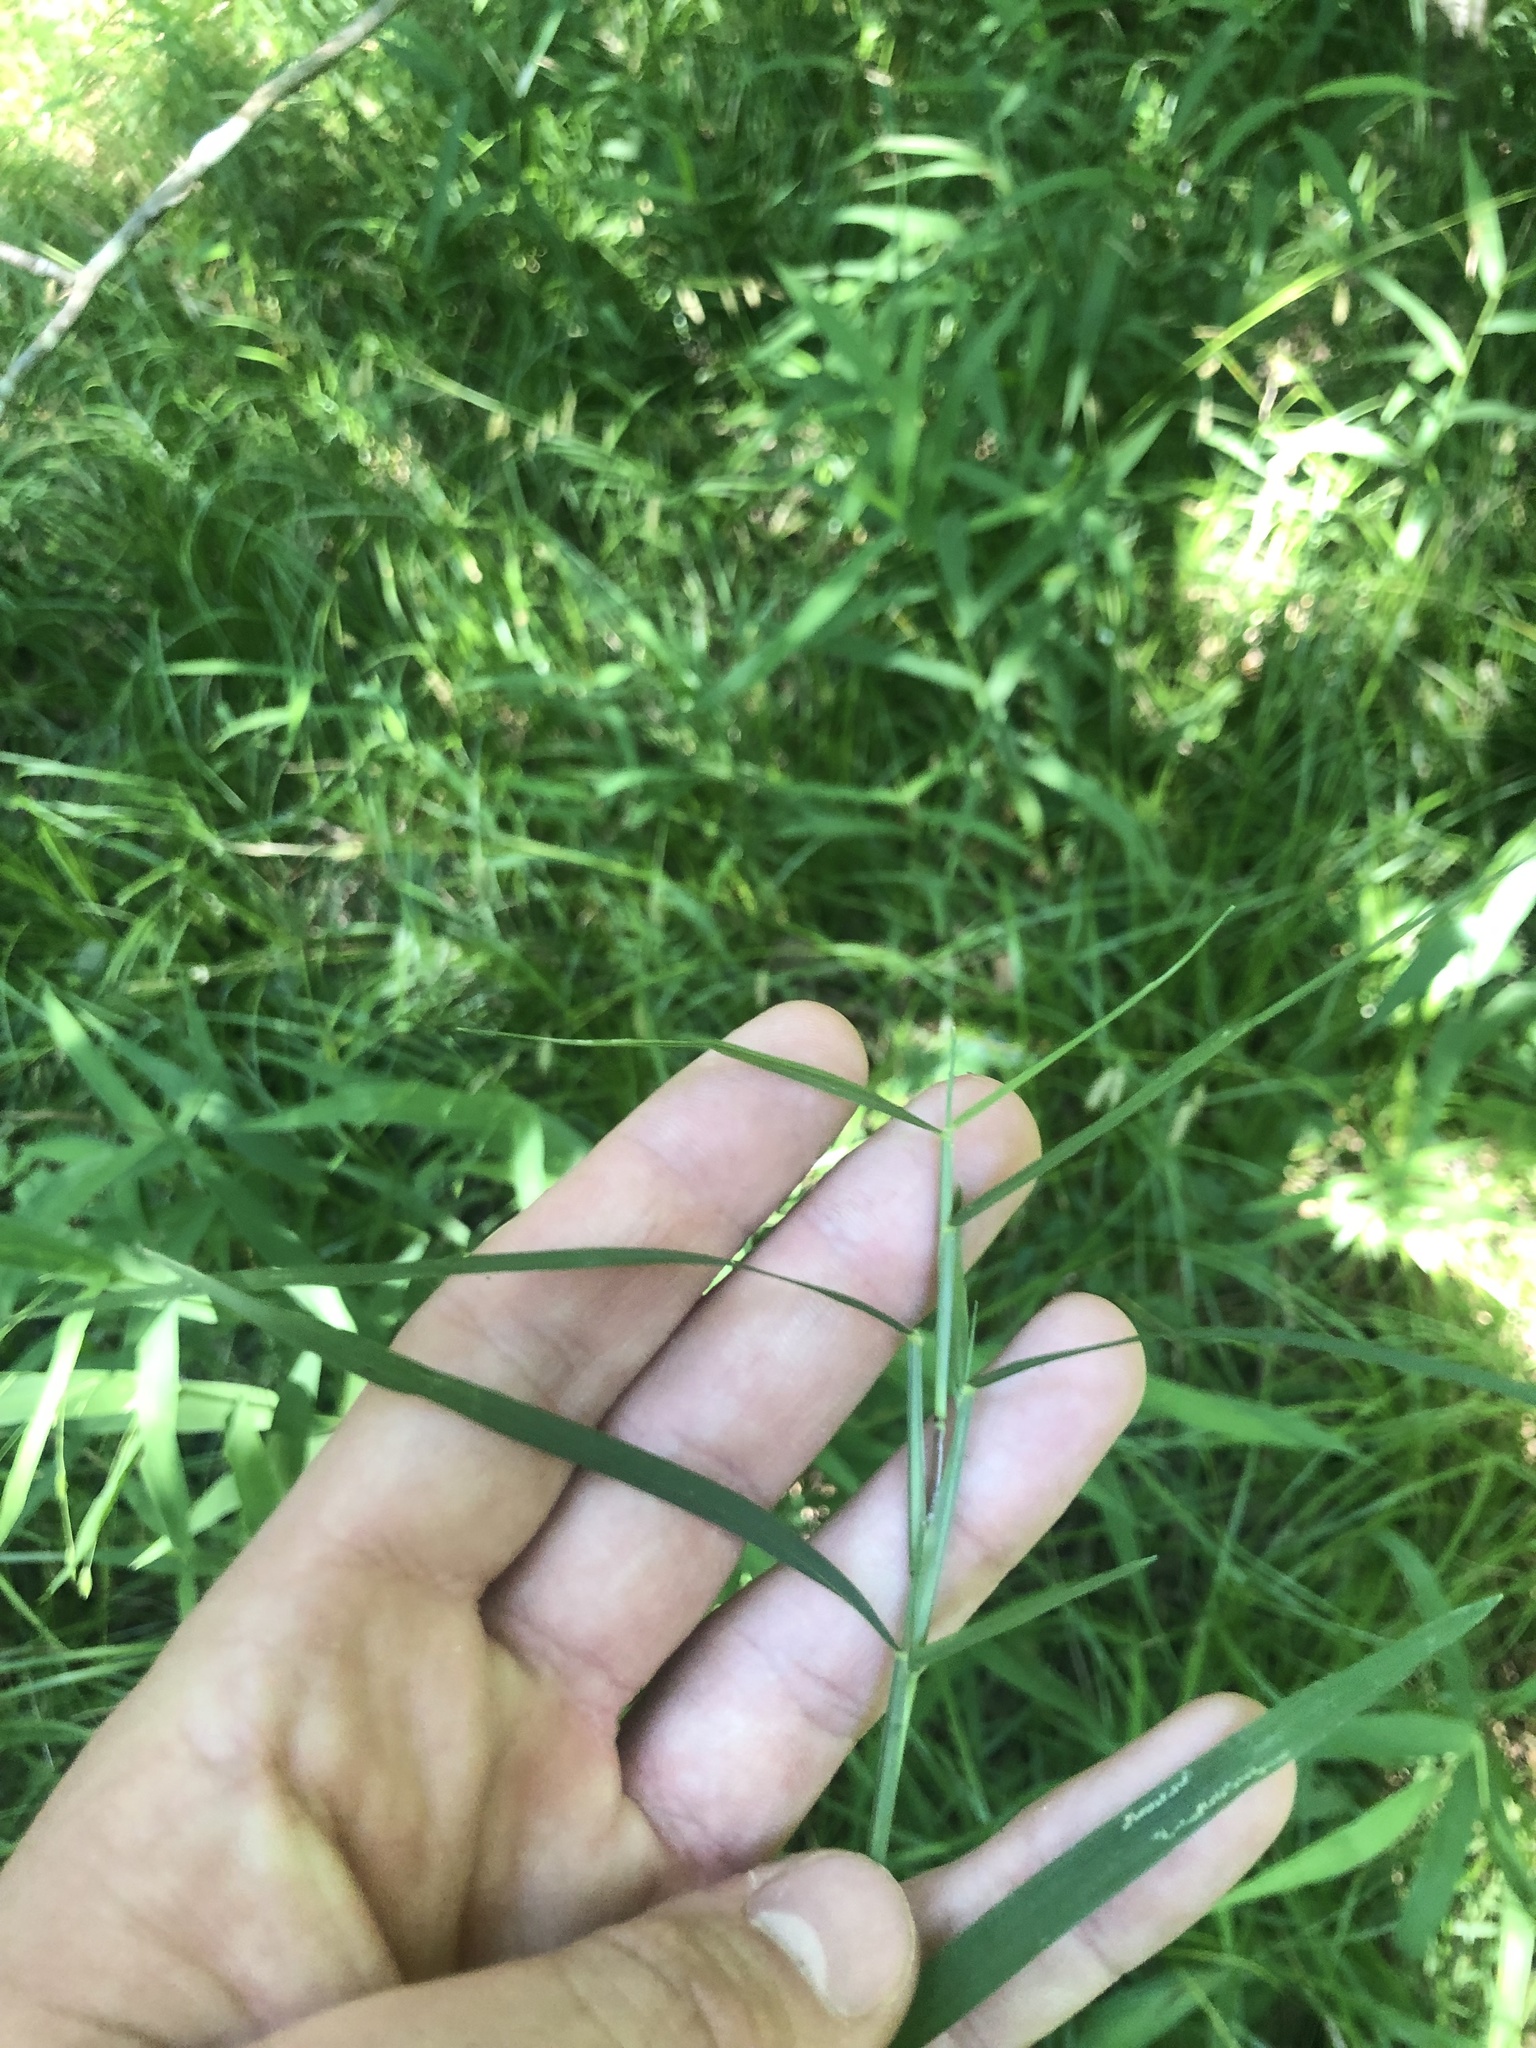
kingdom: Plantae
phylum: Tracheophyta
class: Liliopsida
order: Poales
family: Poaceae
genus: Muhlenbergia
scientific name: Muhlenbergia schreberi
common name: Nimblewill
